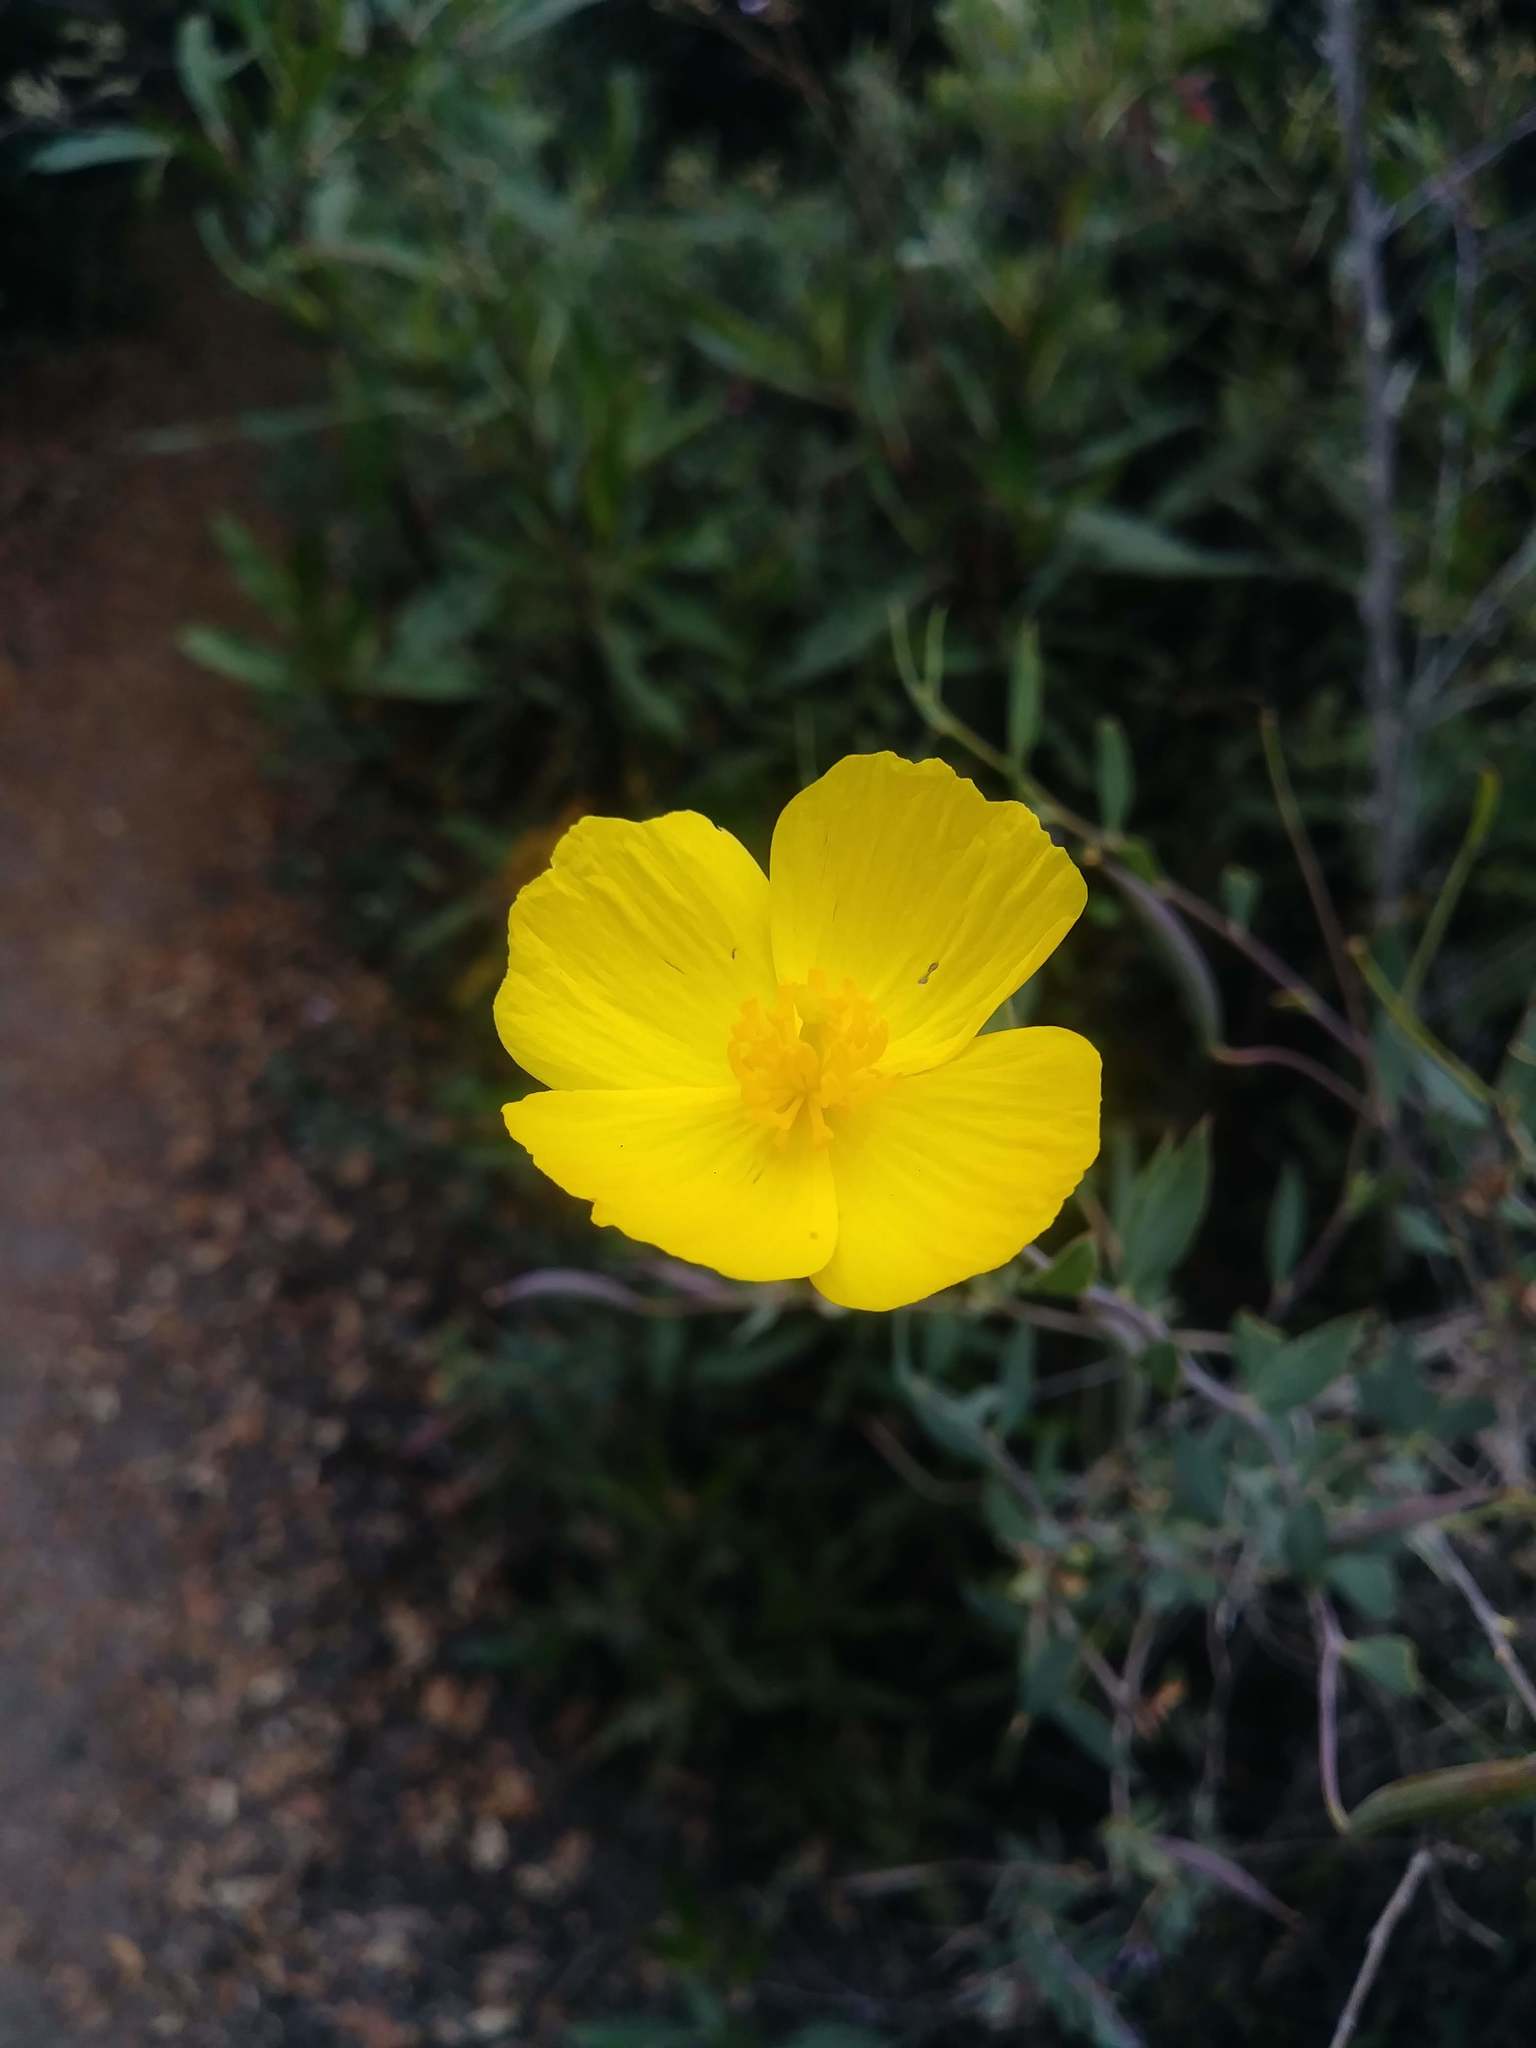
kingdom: Plantae
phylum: Tracheophyta
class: Magnoliopsida
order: Ranunculales
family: Papaveraceae
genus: Dendromecon
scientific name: Dendromecon rigida
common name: Tree poppy
